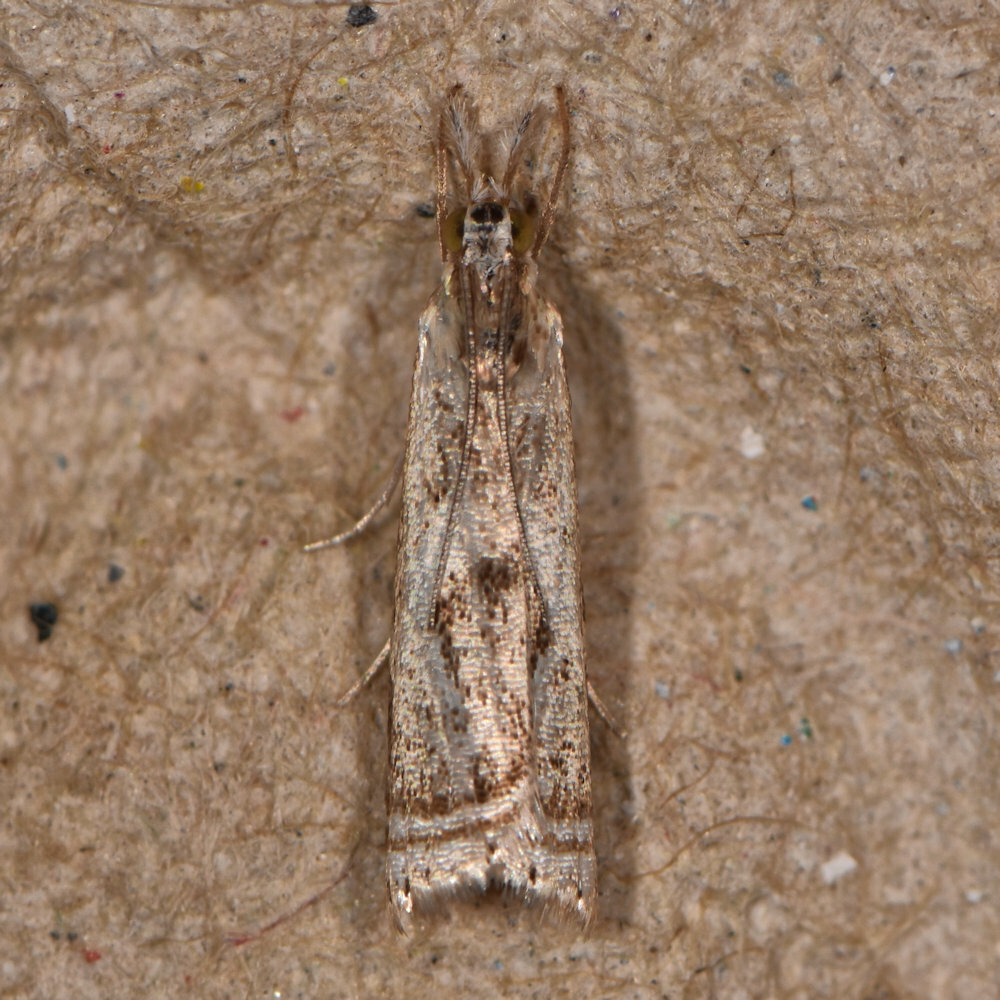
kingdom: Animalia
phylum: Arthropoda
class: Insecta
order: Lepidoptera
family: Crambidae
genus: Microcrambus
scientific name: Microcrambus elegans
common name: Elegant grass-veneer
